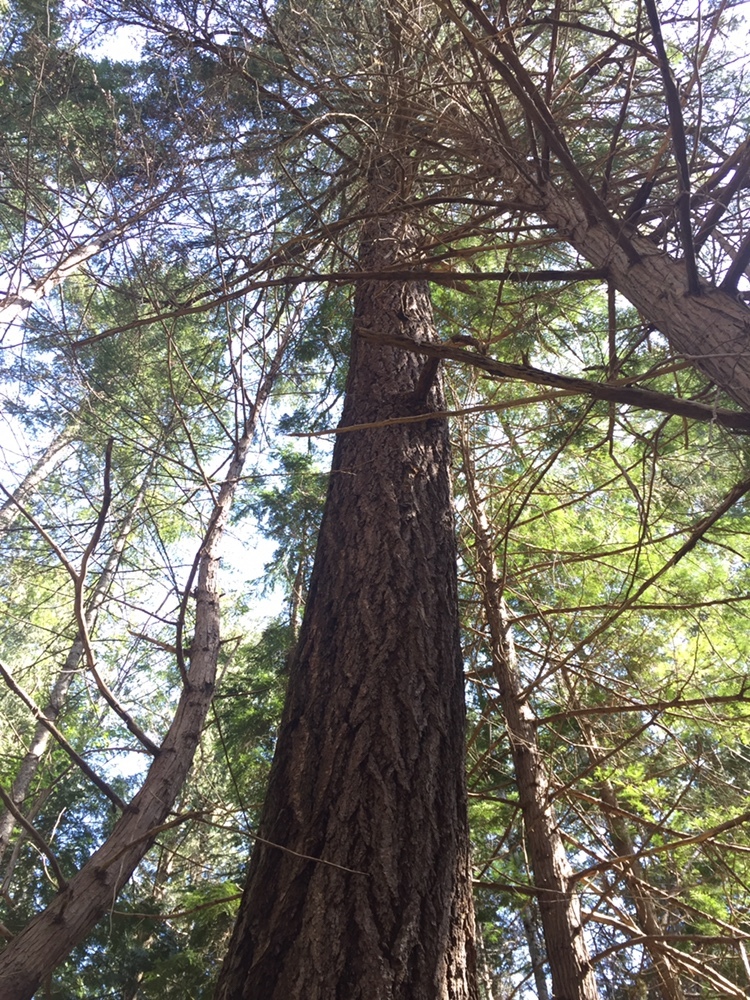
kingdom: Plantae
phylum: Tracheophyta
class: Pinopsida
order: Pinales
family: Pinaceae
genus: Pseudotsuga
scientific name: Pseudotsuga menziesii
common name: Douglas fir
